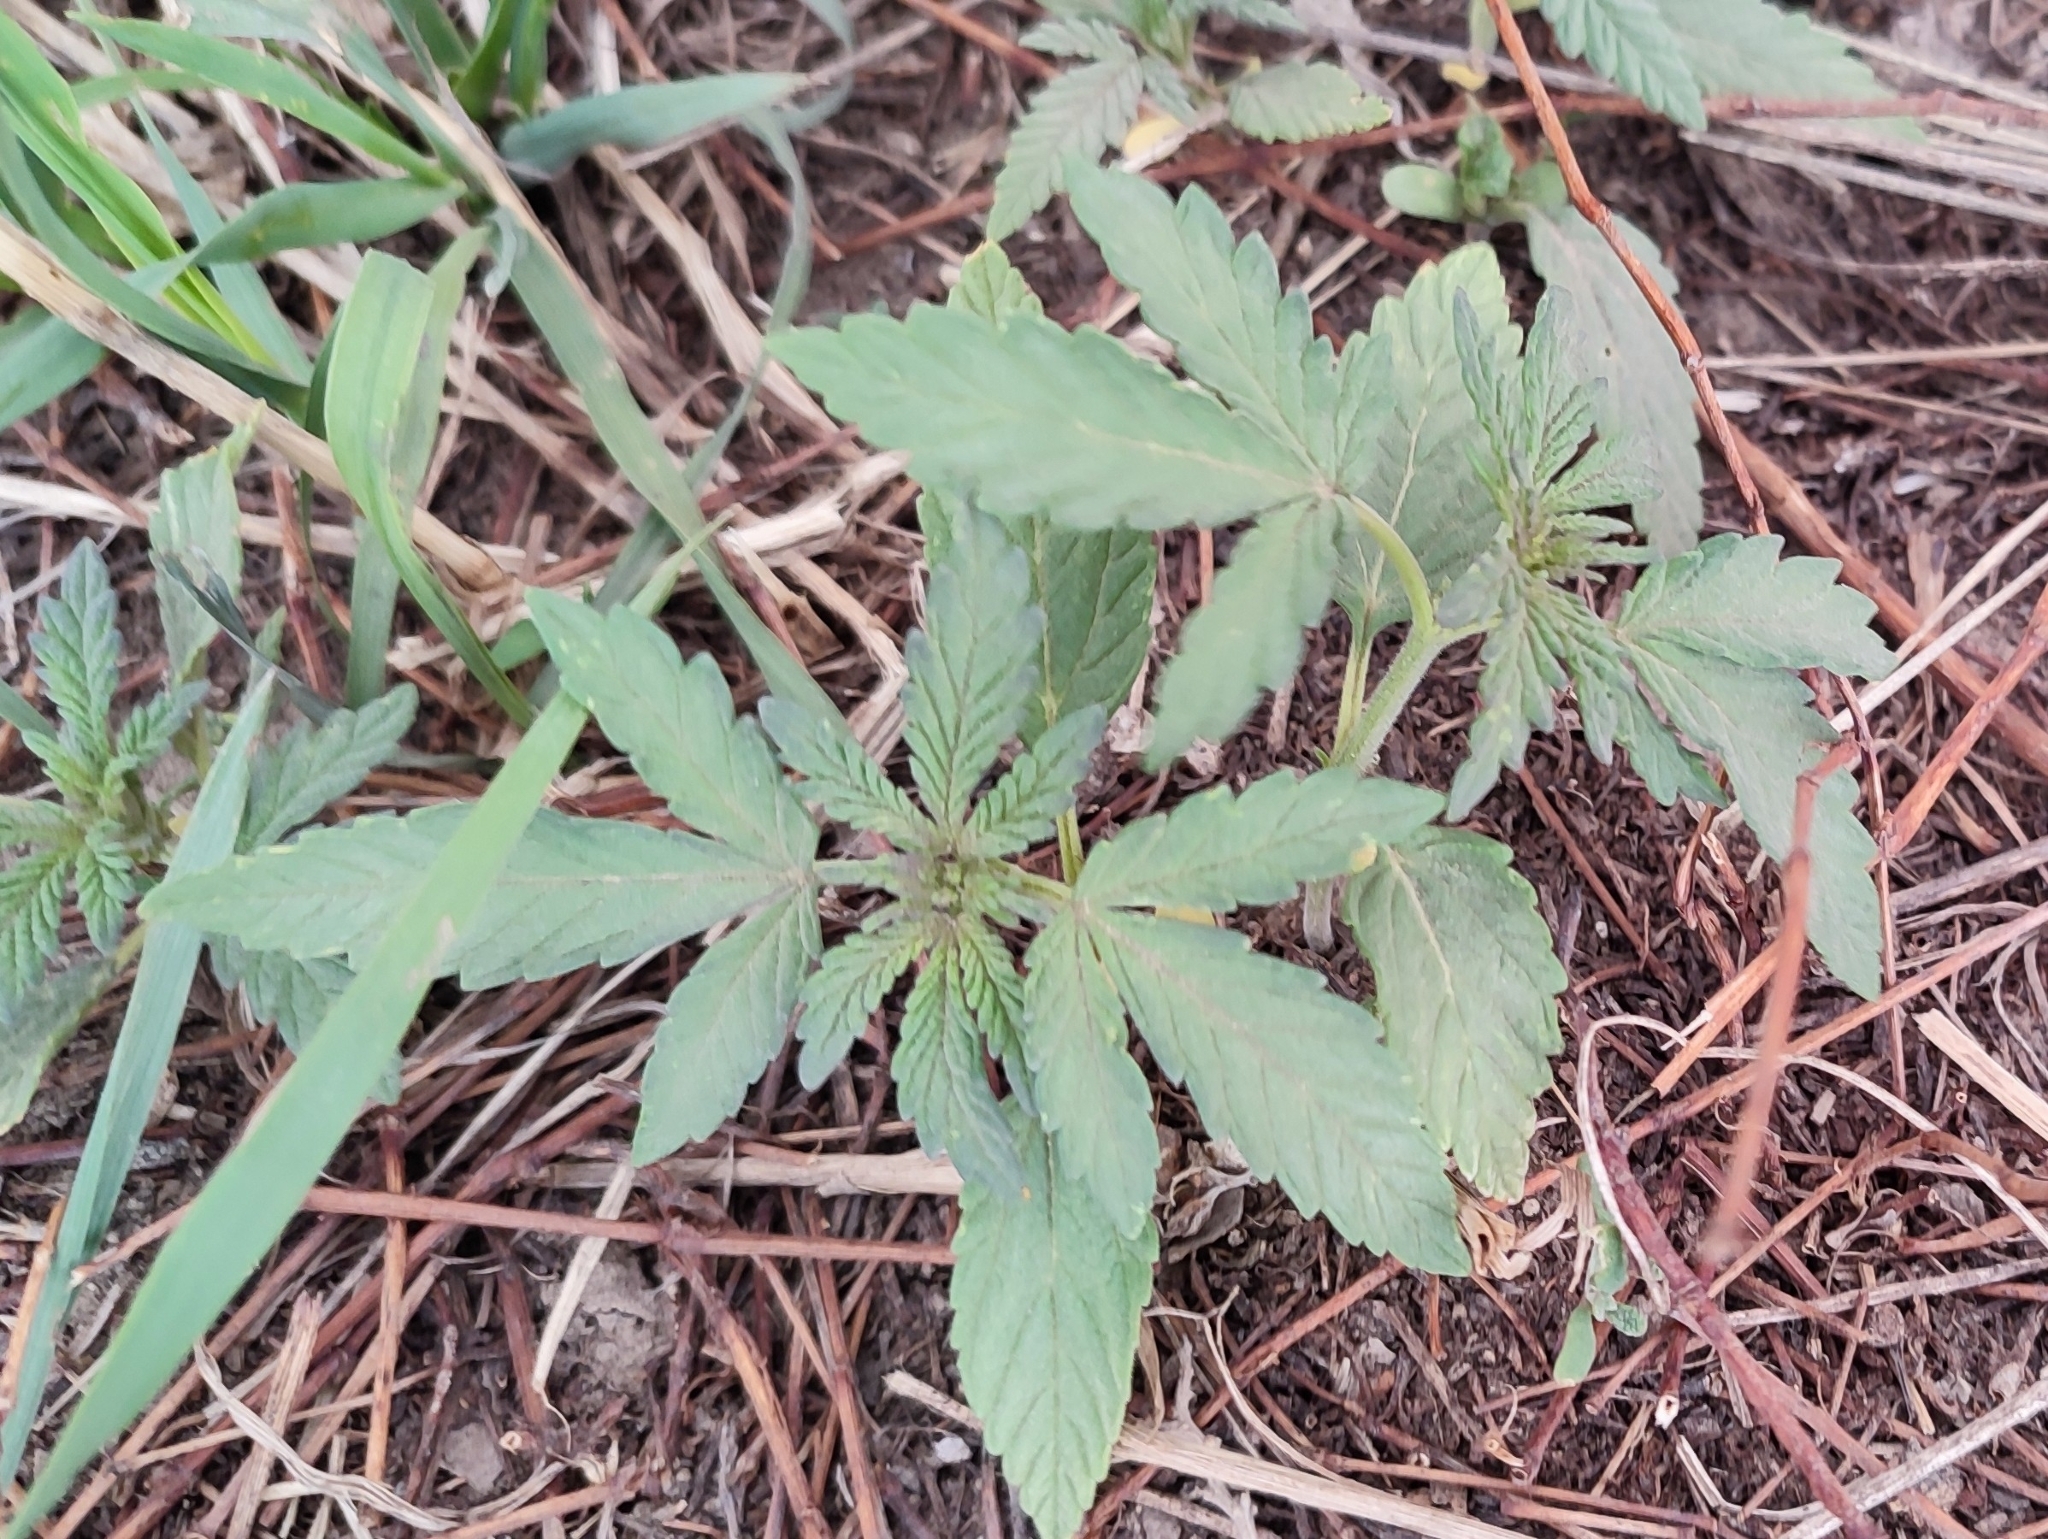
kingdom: Plantae
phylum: Tracheophyta
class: Magnoliopsida
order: Rosales
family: Cannabaceae
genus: Cannabis
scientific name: Cannabis sativa
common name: Hemp
